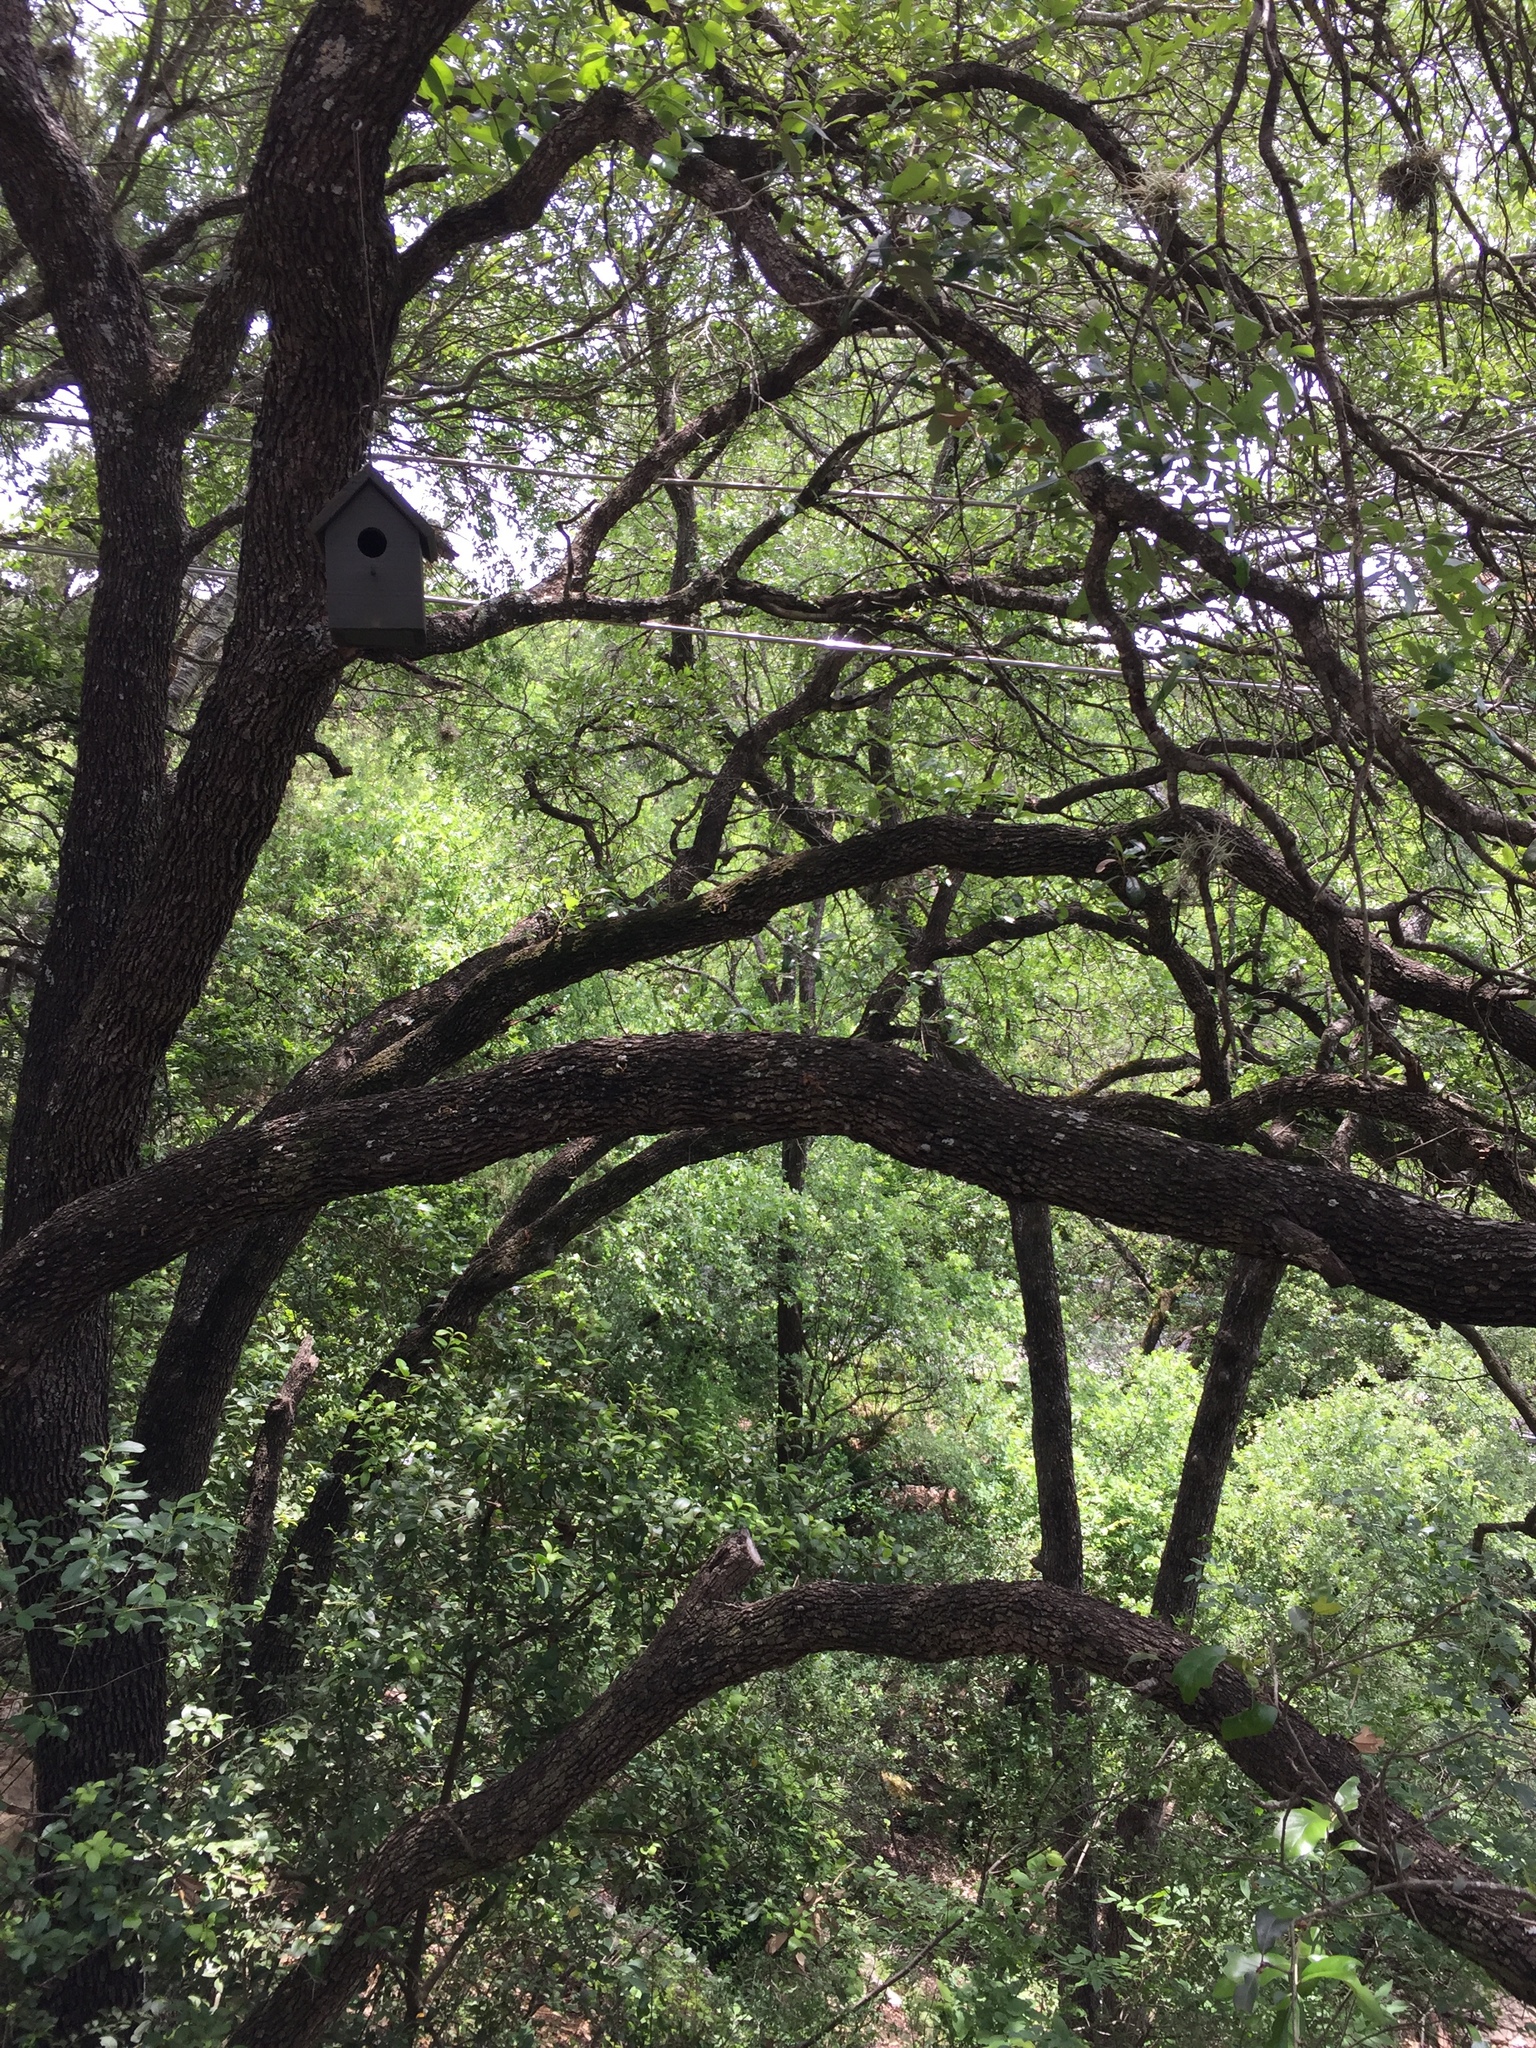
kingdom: Plantae
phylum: Tracheophyta
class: Magnoliopsida
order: Fagales
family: Fagaceae
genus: Quercus
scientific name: Quercus fusiformis
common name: Texas live oak
